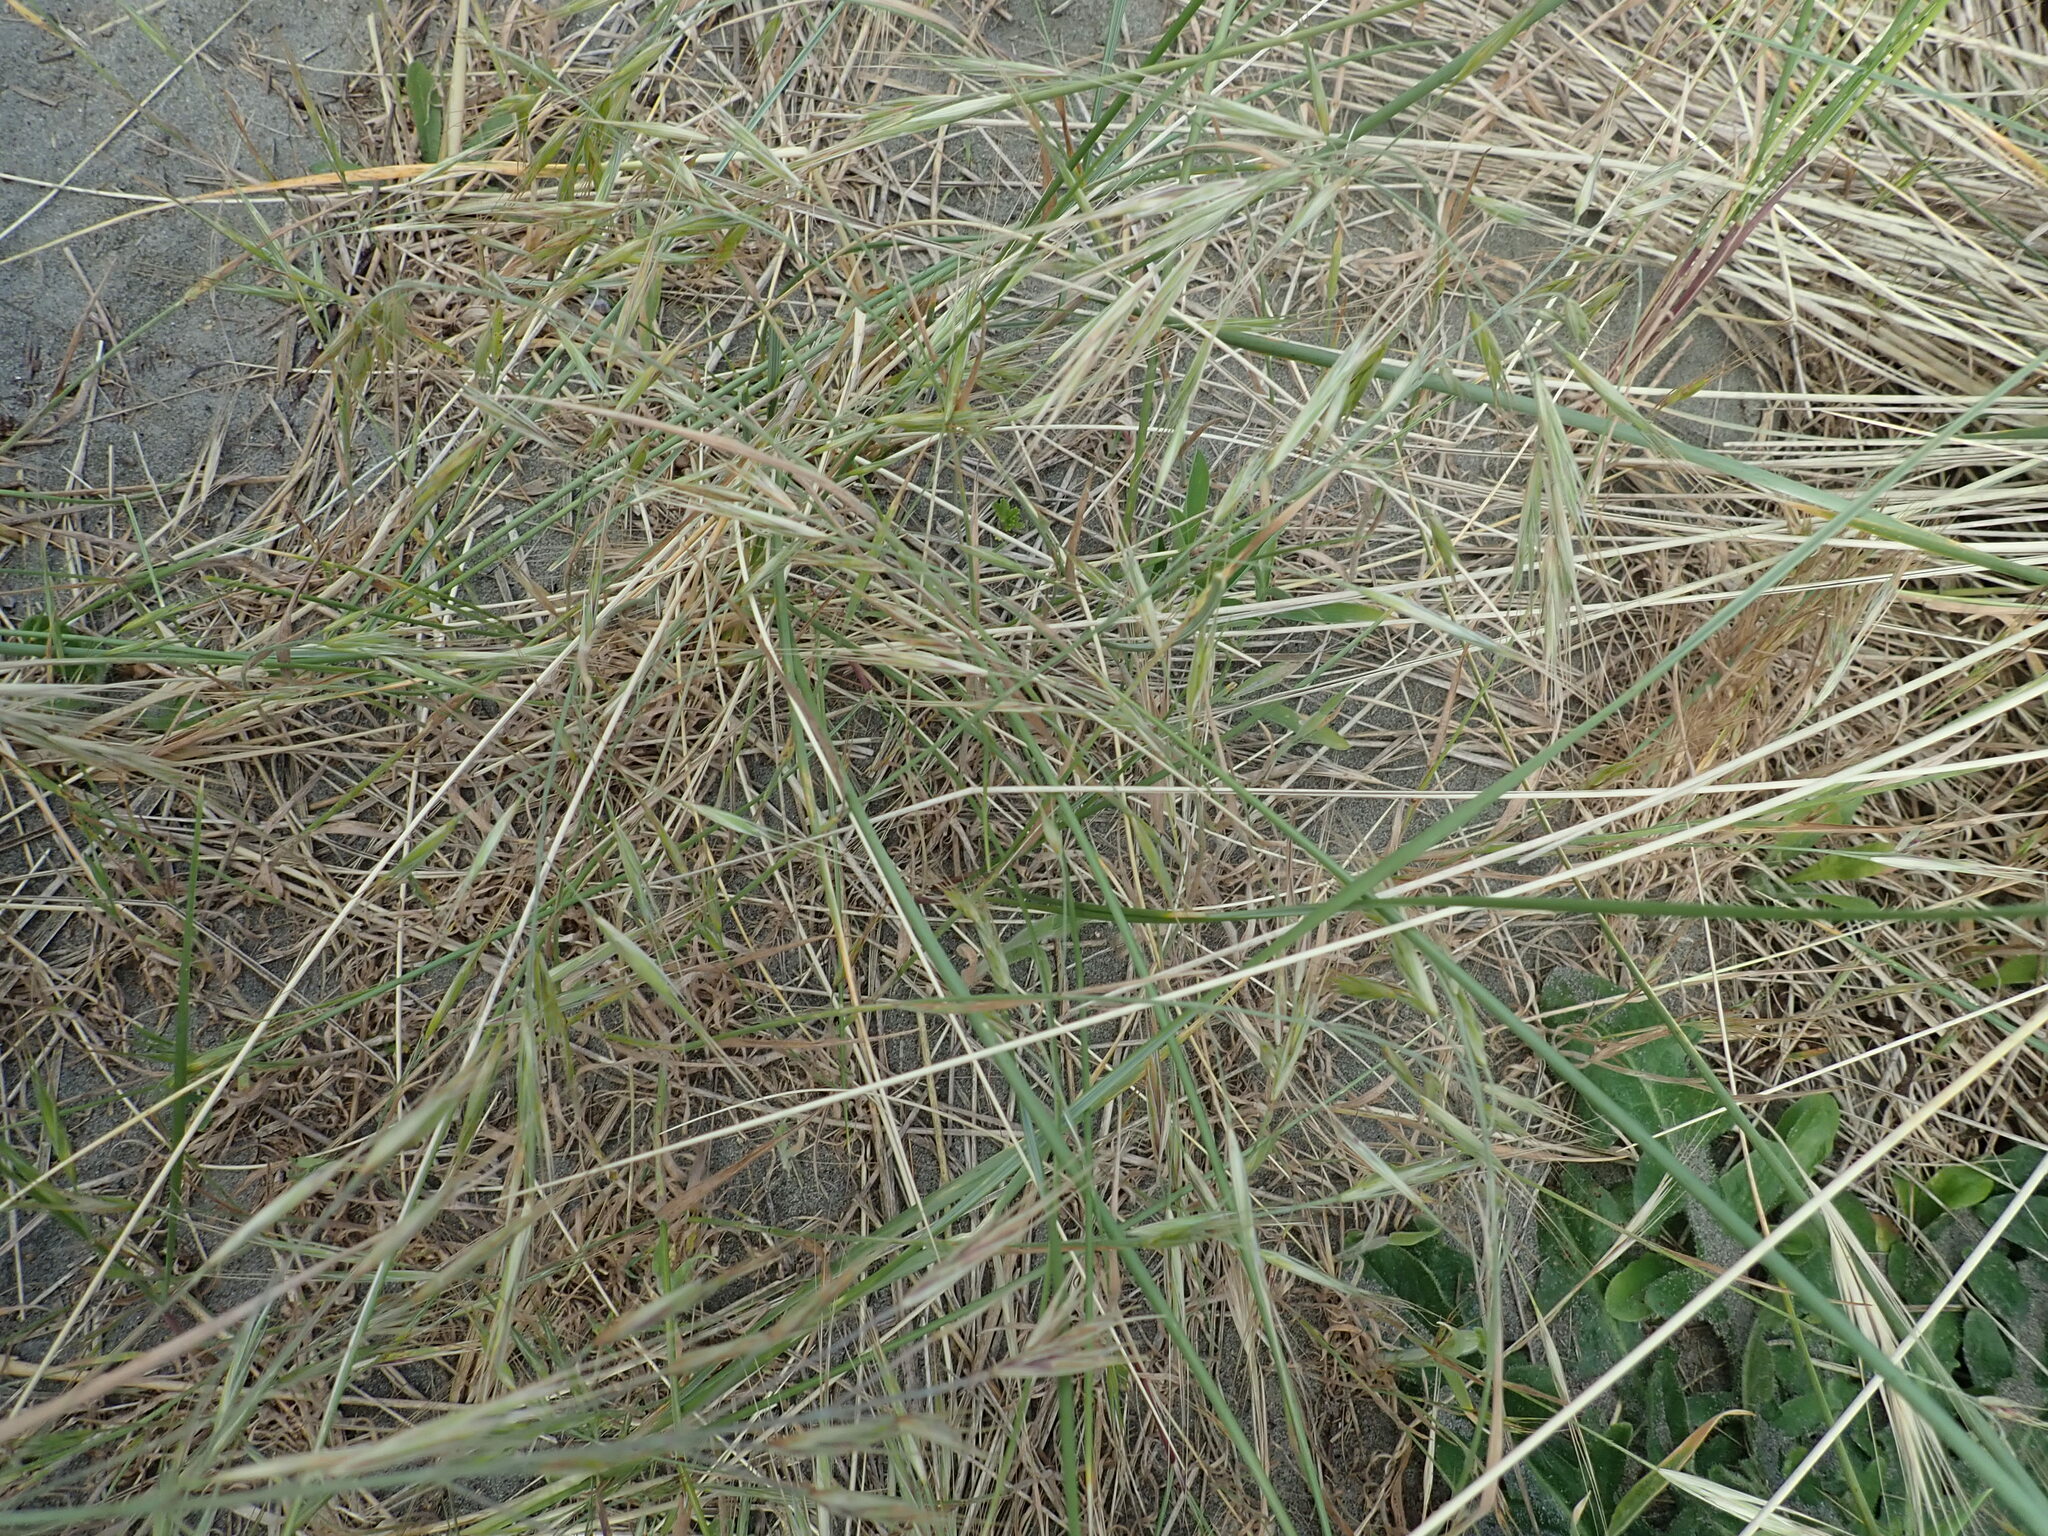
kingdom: Plantae
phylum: Tracheophyta
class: Liliopsida
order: Poales
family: Poaceae
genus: Bromus
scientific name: Bromus diandrus
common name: Ripgut brome
